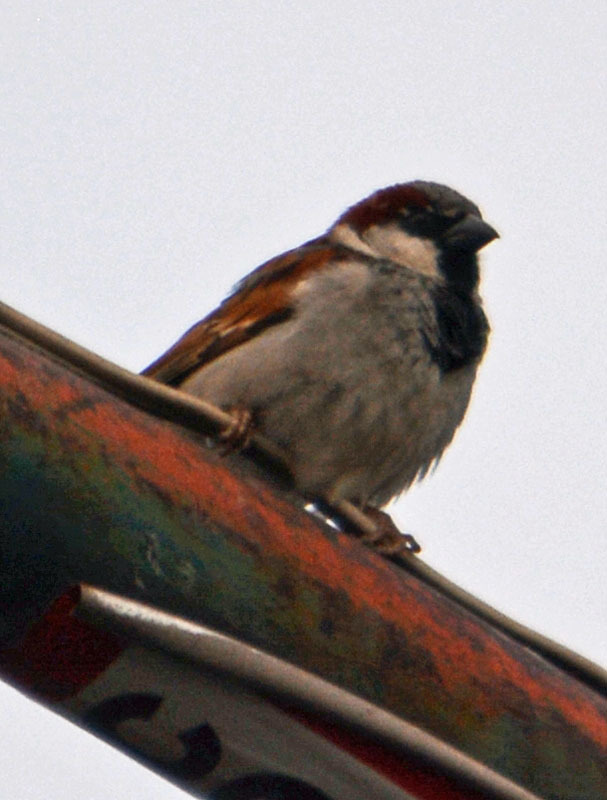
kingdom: Animalia
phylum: Chordata
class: Aves
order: Passeriformes
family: Passeridae
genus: Passer
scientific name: Passer domesticus
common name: House sparrow
